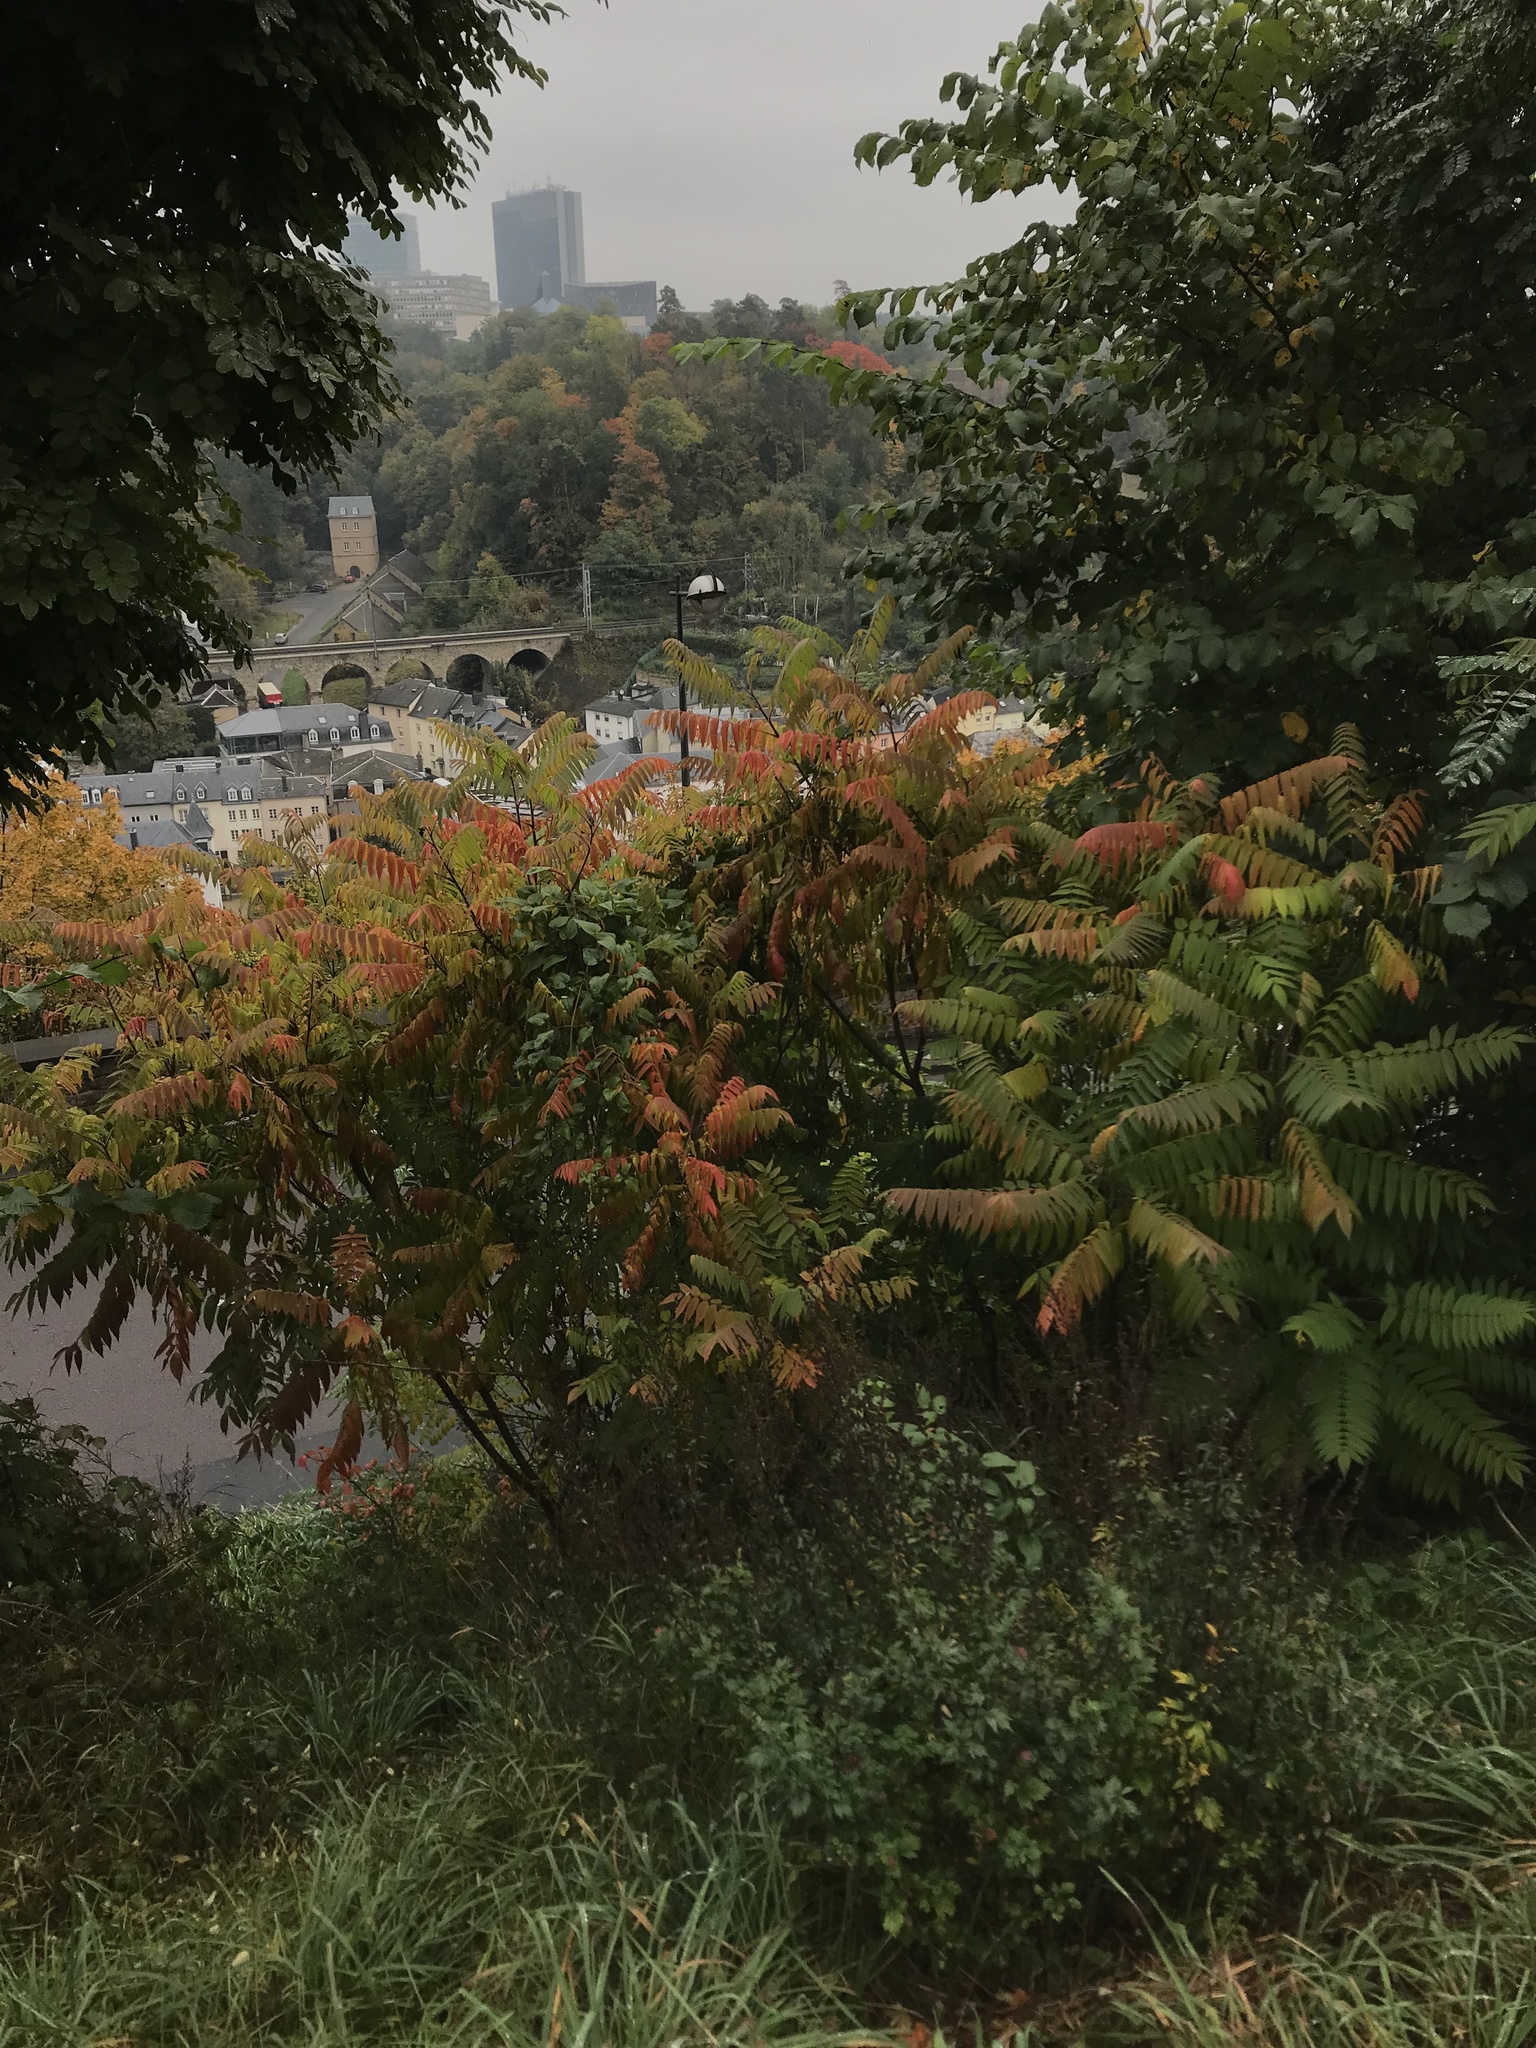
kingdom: Plantae
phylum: Tracheophyta
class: Magnoliopsida
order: Sapindales
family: Anacardiaceae
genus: Rhus
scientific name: Rhus typhina
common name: Staghorn sumac
